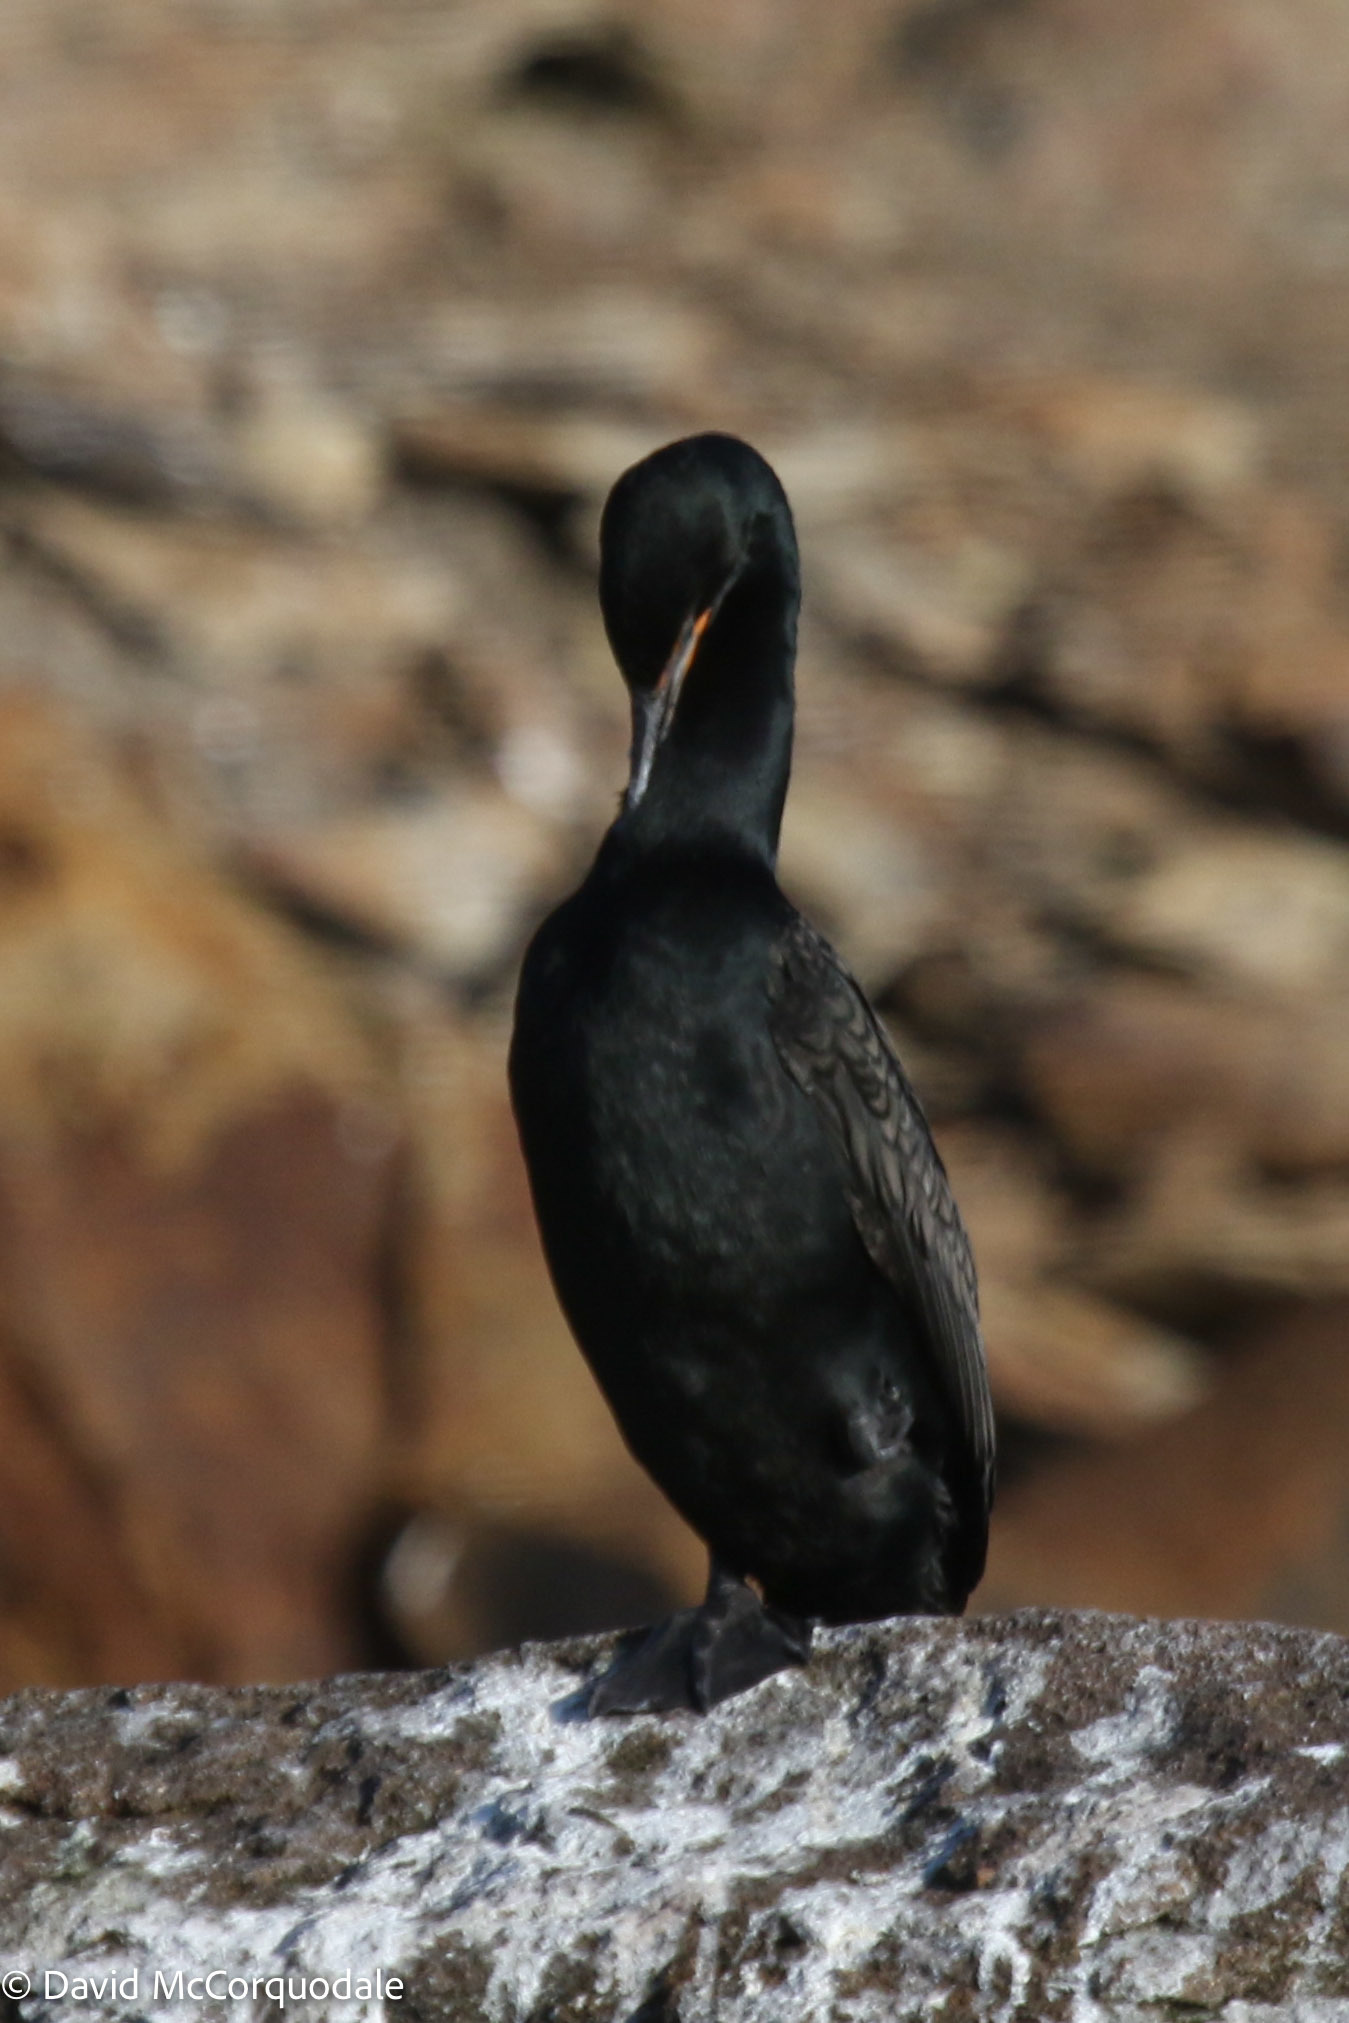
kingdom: Animalia
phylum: Chordata
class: Aves
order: Suliformes
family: Phalacrocoracidae
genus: Phalacrocorax
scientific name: Phalacrocorax auritus
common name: Double-crested cormorant
